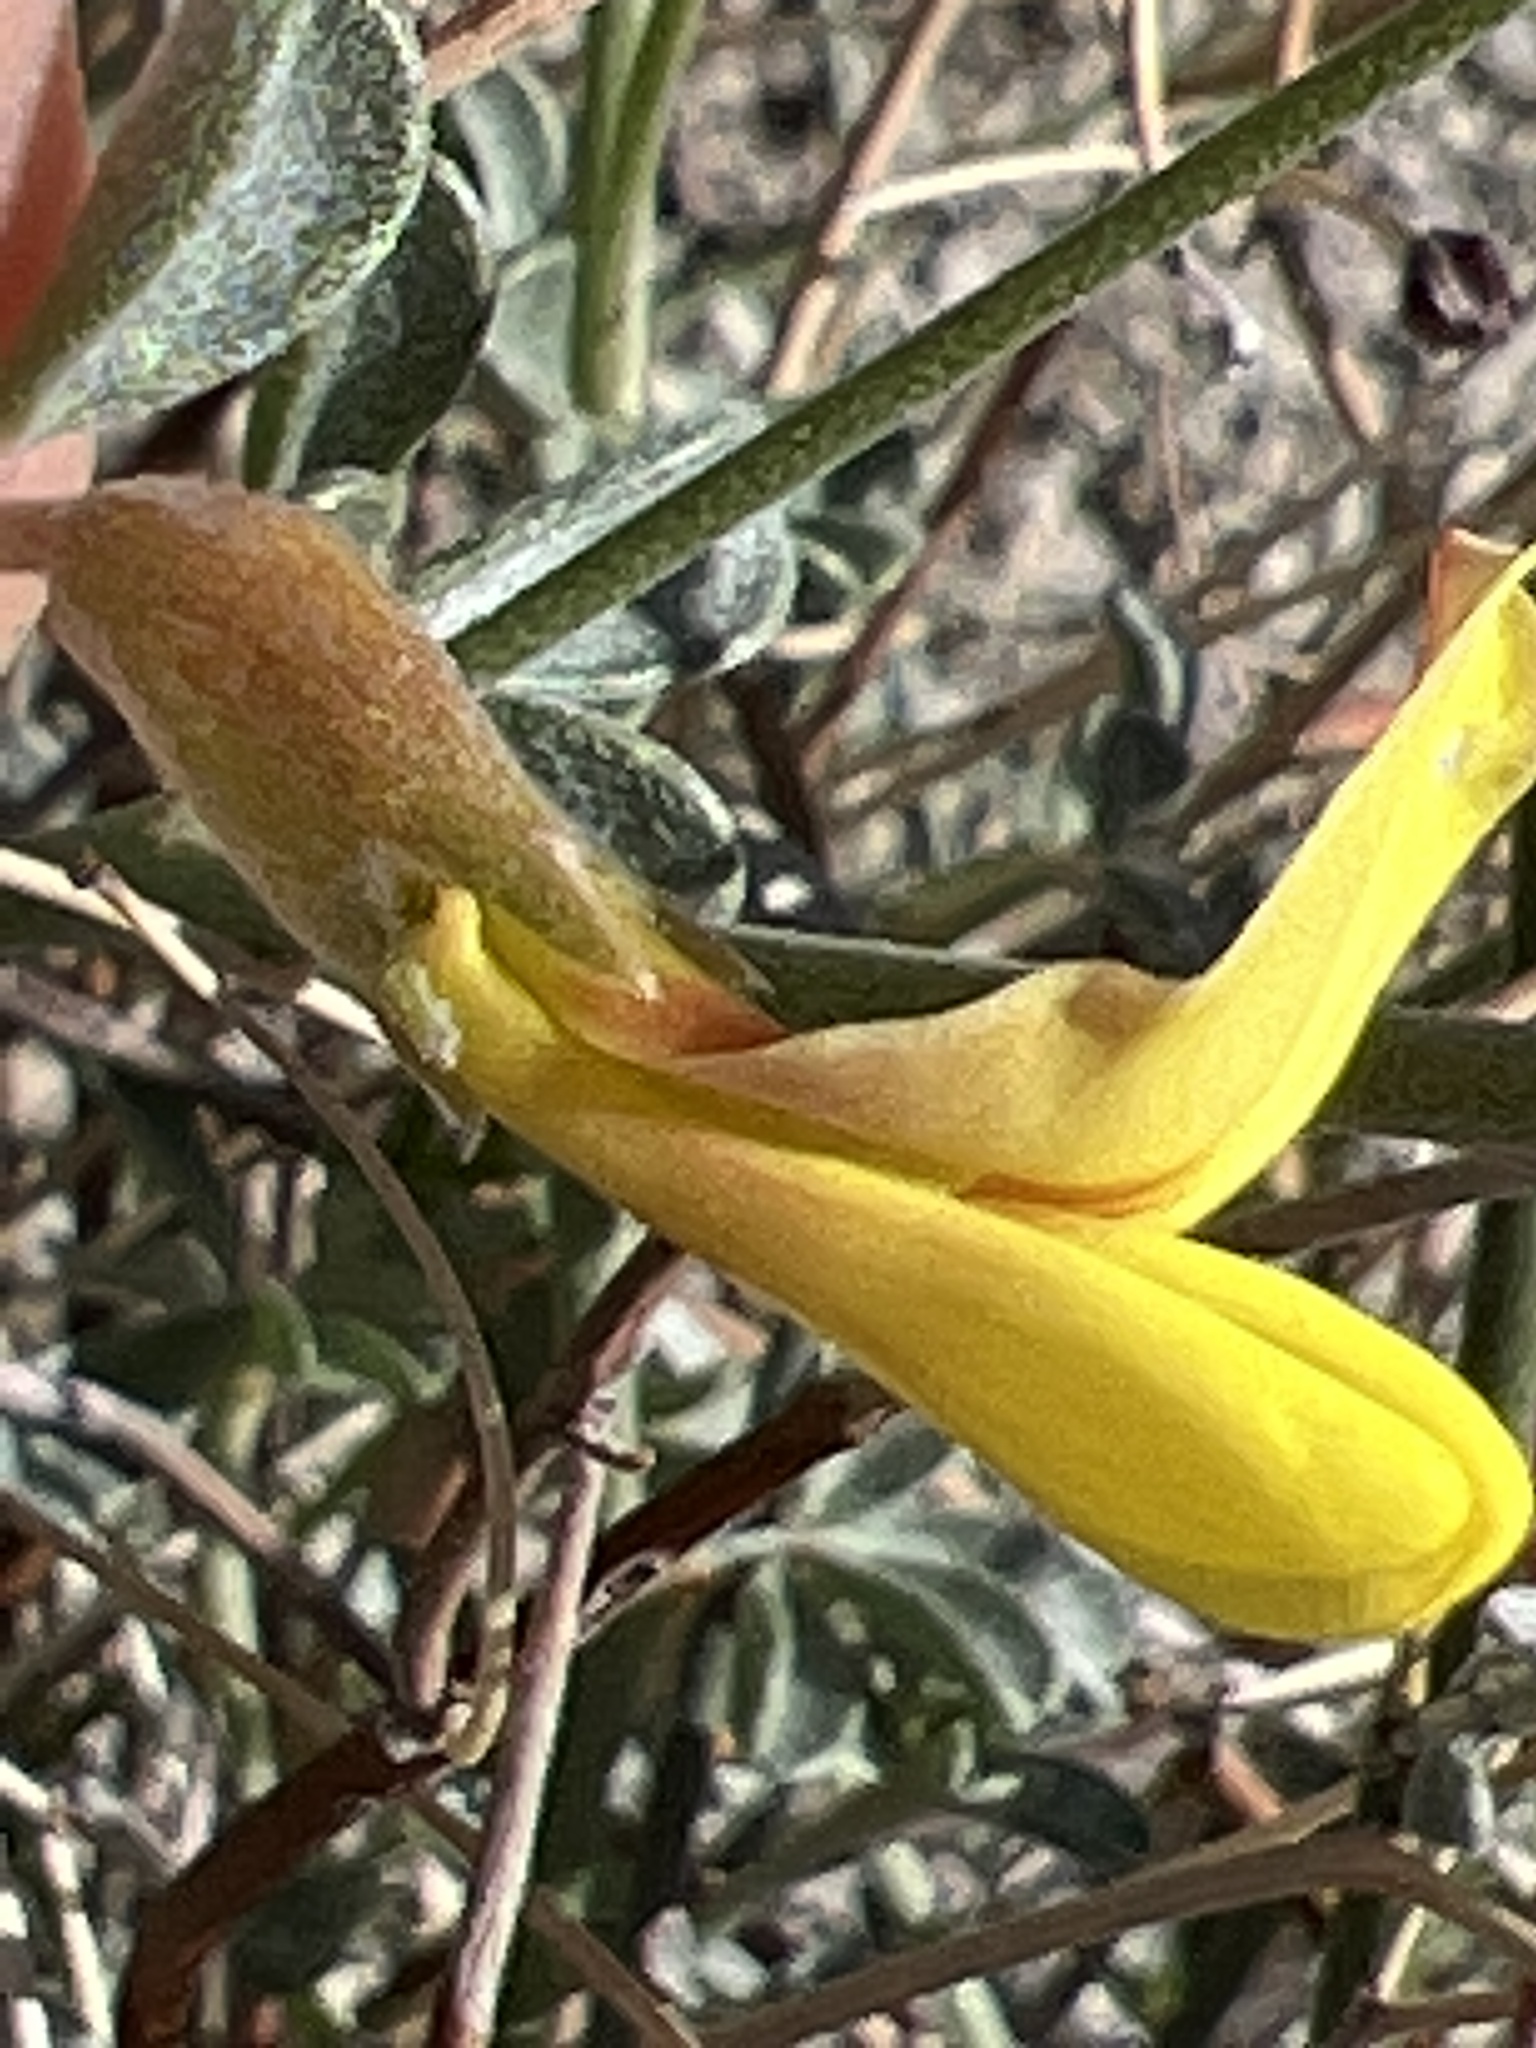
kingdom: Plantae
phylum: Tracheophyta
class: Magnoliopsida
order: Fabales
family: Fabaceae
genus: Acmispon
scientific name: Acmispon rigidus
